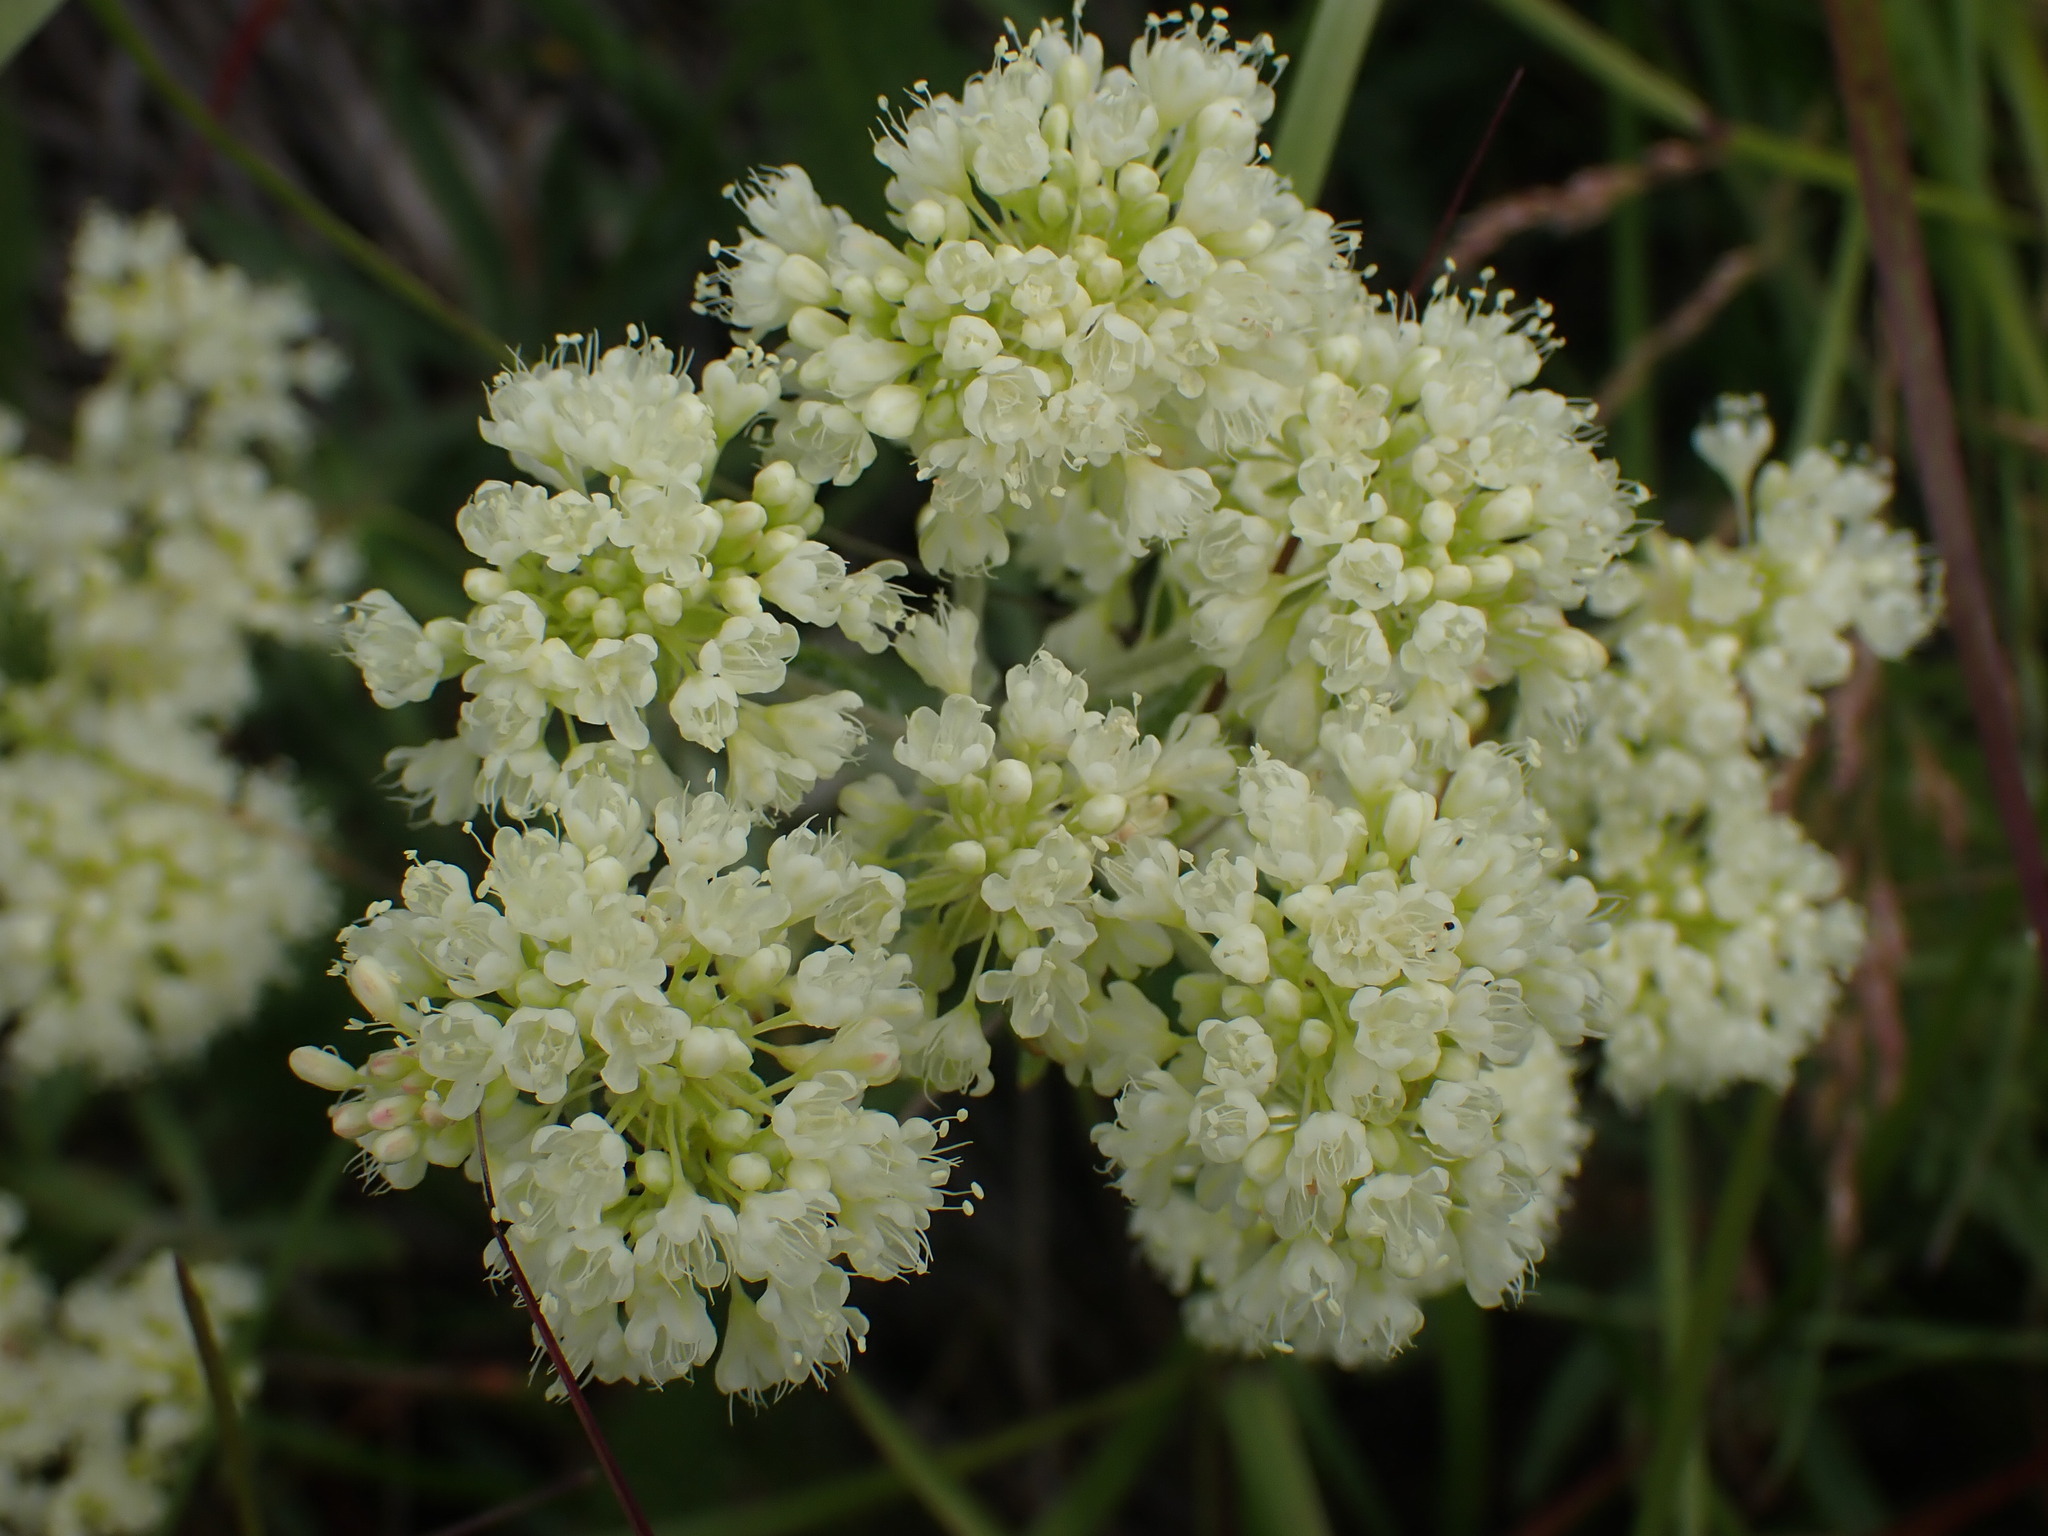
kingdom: Plantae
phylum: Tracheophyta
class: Magnoliopsida
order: Caryophyllales
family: Polygonaceae
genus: Eriogonum
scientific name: Eriogonum heracleoides
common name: Wyeth's buckwheat
